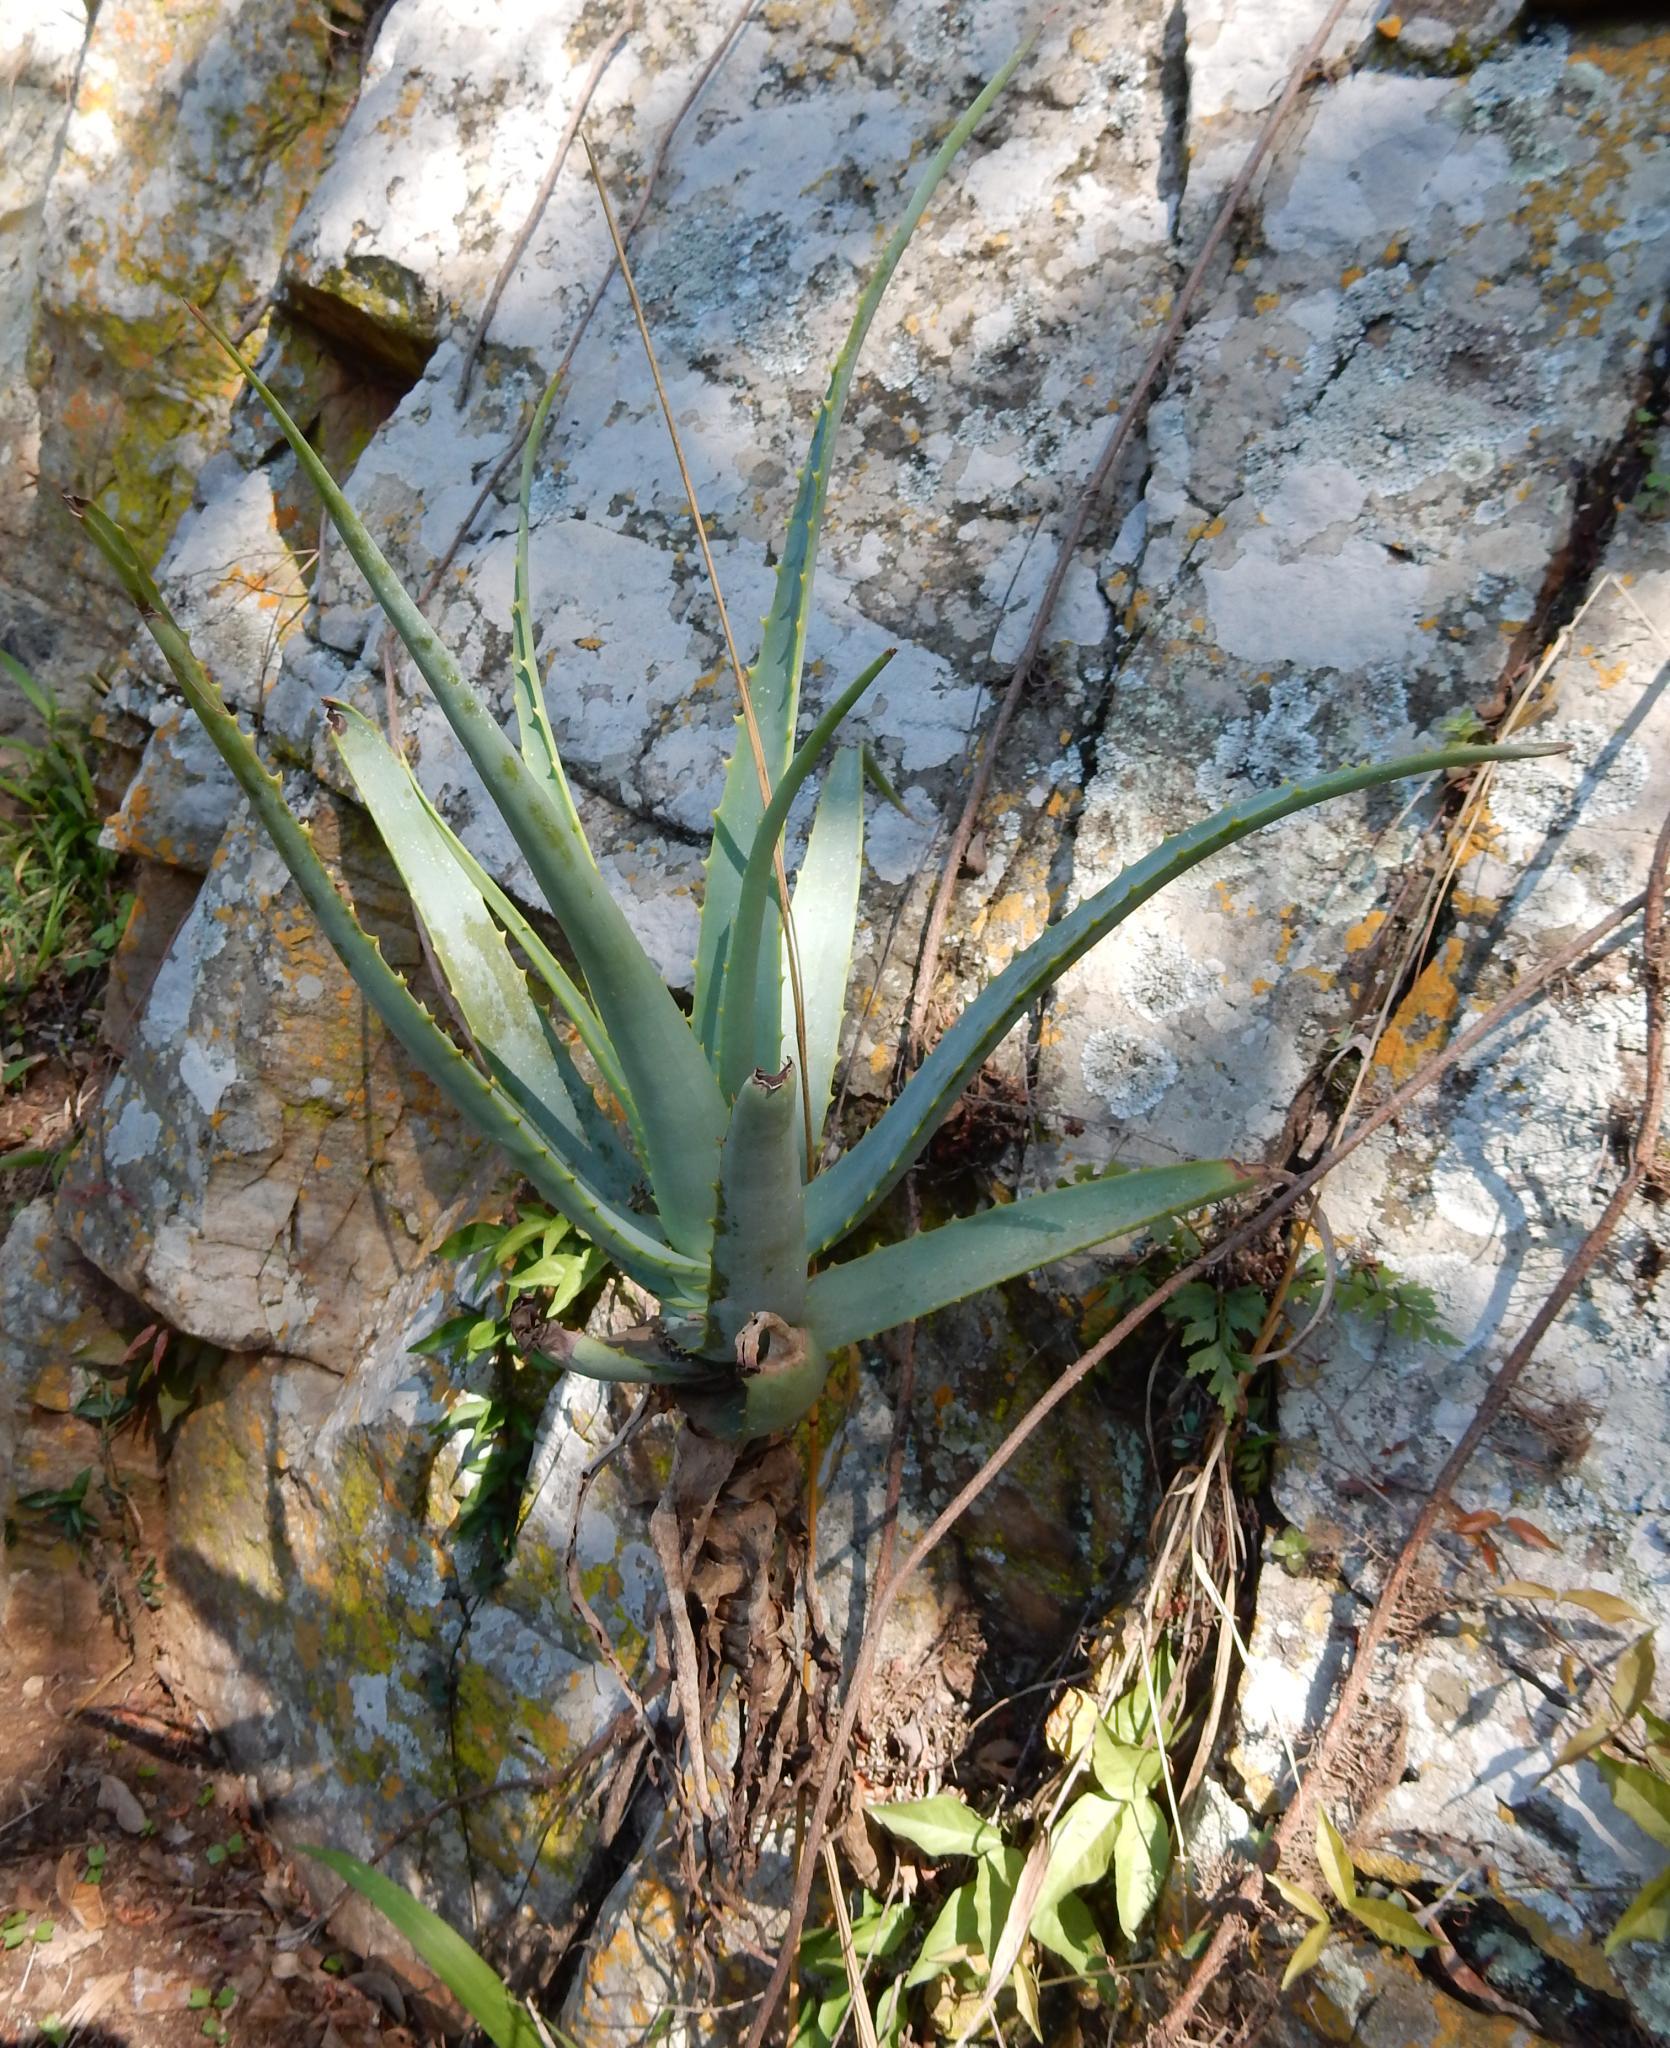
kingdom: Plantae
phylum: Tracheophyta
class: Liliopsida
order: Asparagales
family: Asphodelaceae
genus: Aloe
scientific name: Aloe mutabilis
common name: Blue krantz aloe
